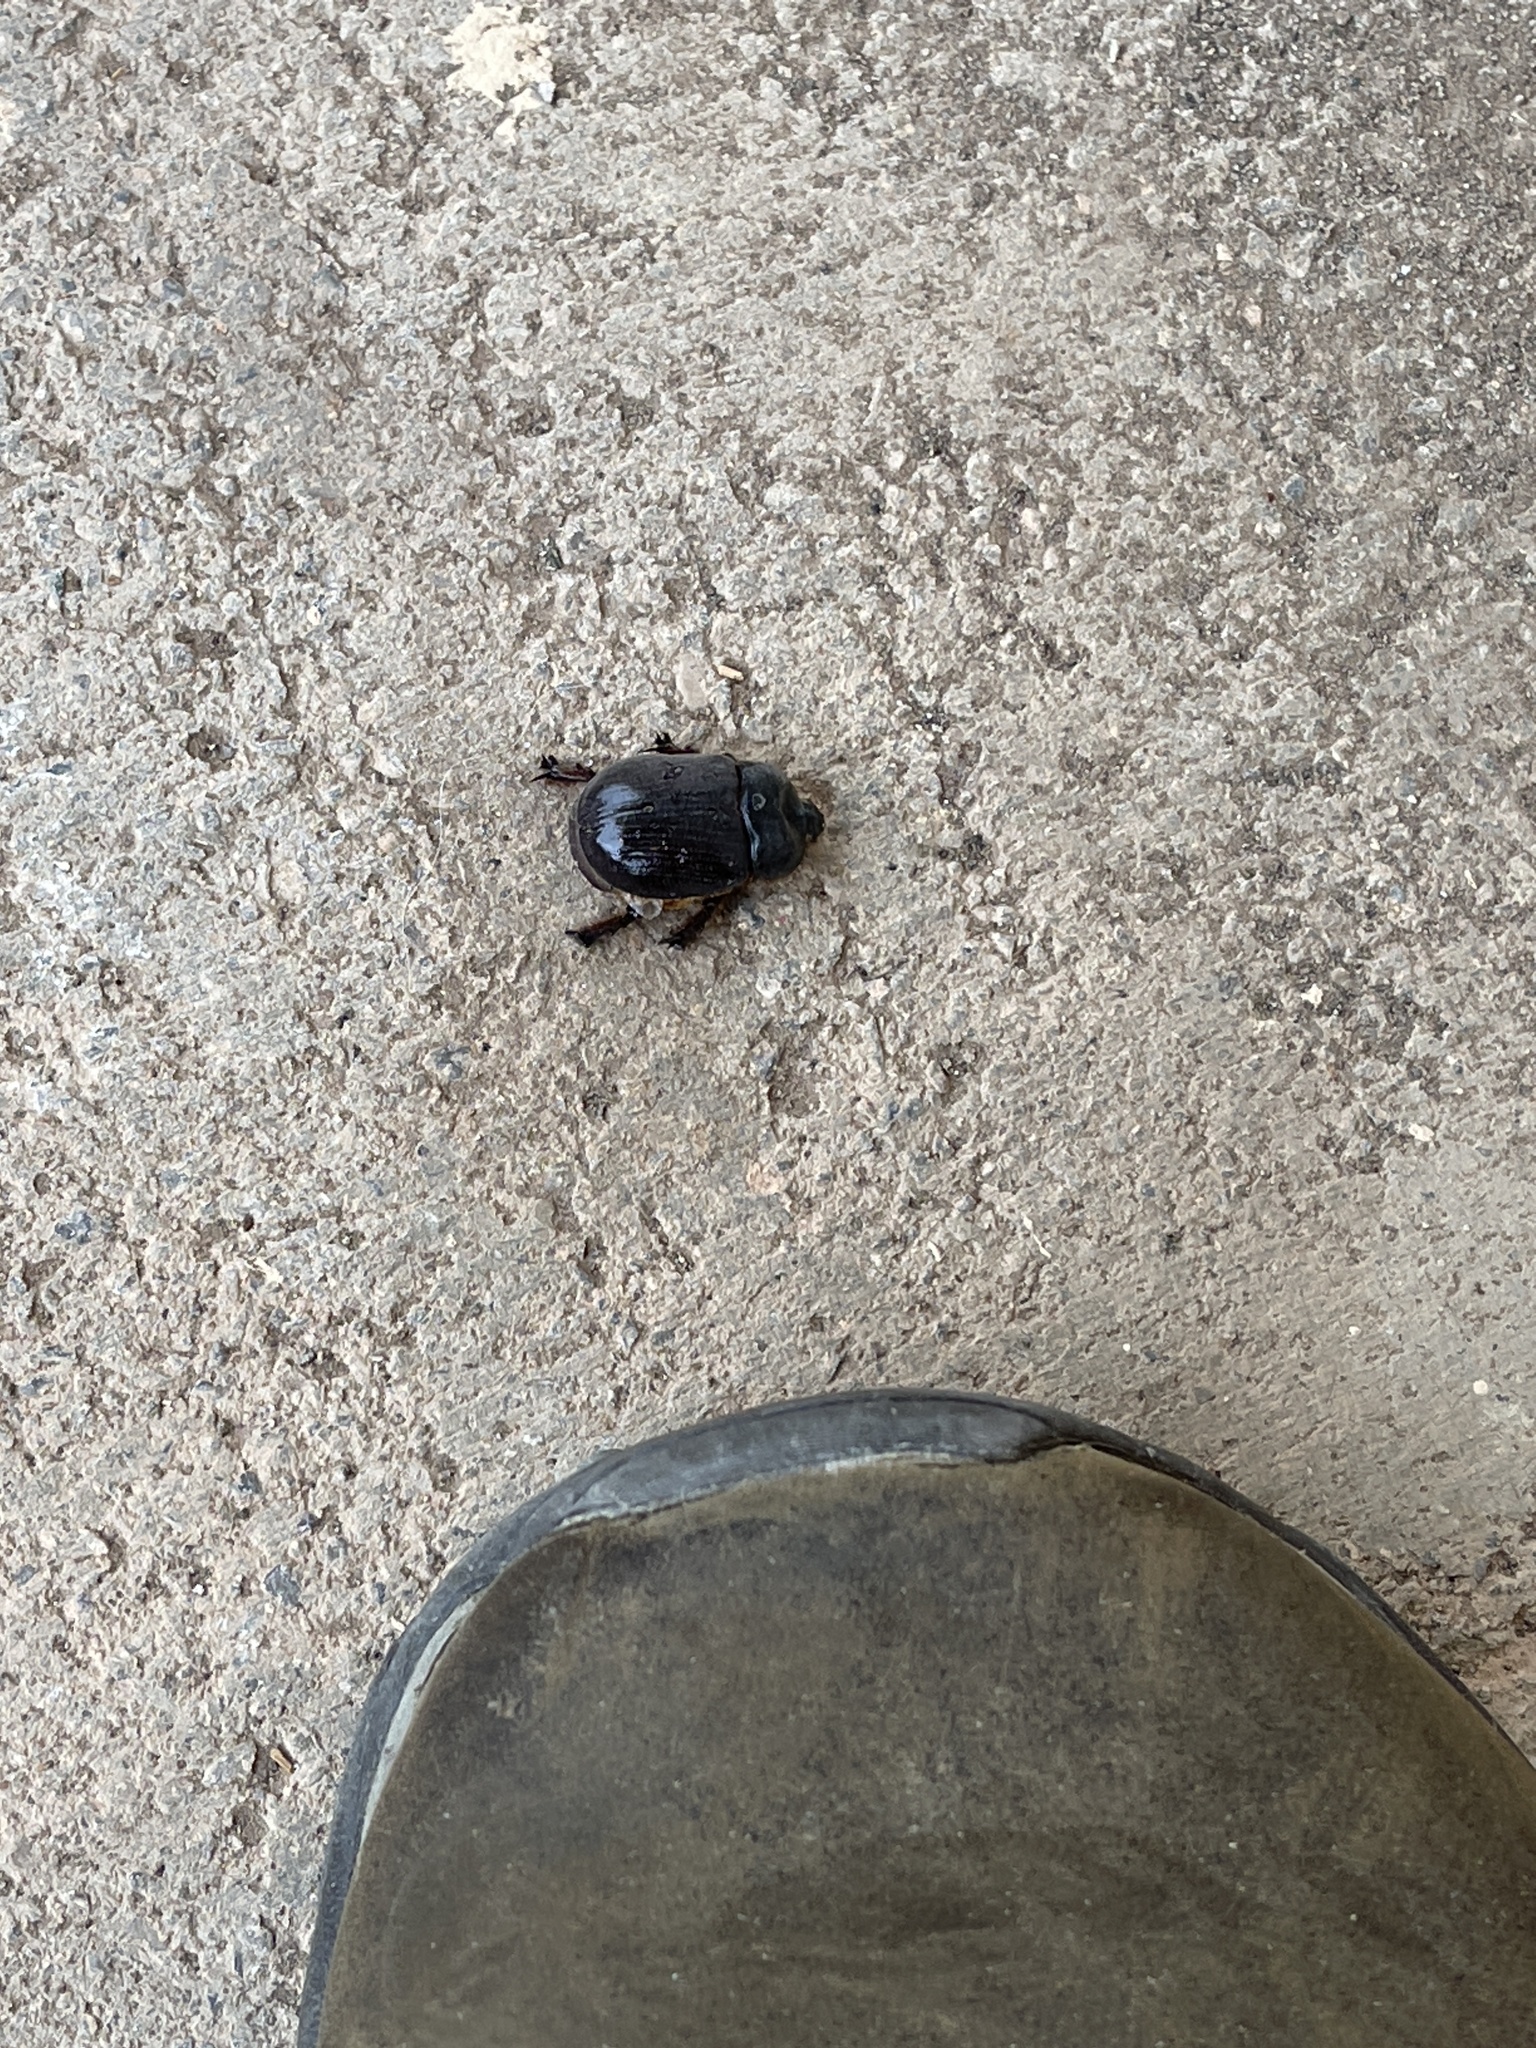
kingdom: Animalia
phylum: Arthropoda
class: Insecta
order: Coleoptera
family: Scarabaeidae
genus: Xyloryctes
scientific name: Xyloryctes thestalus
